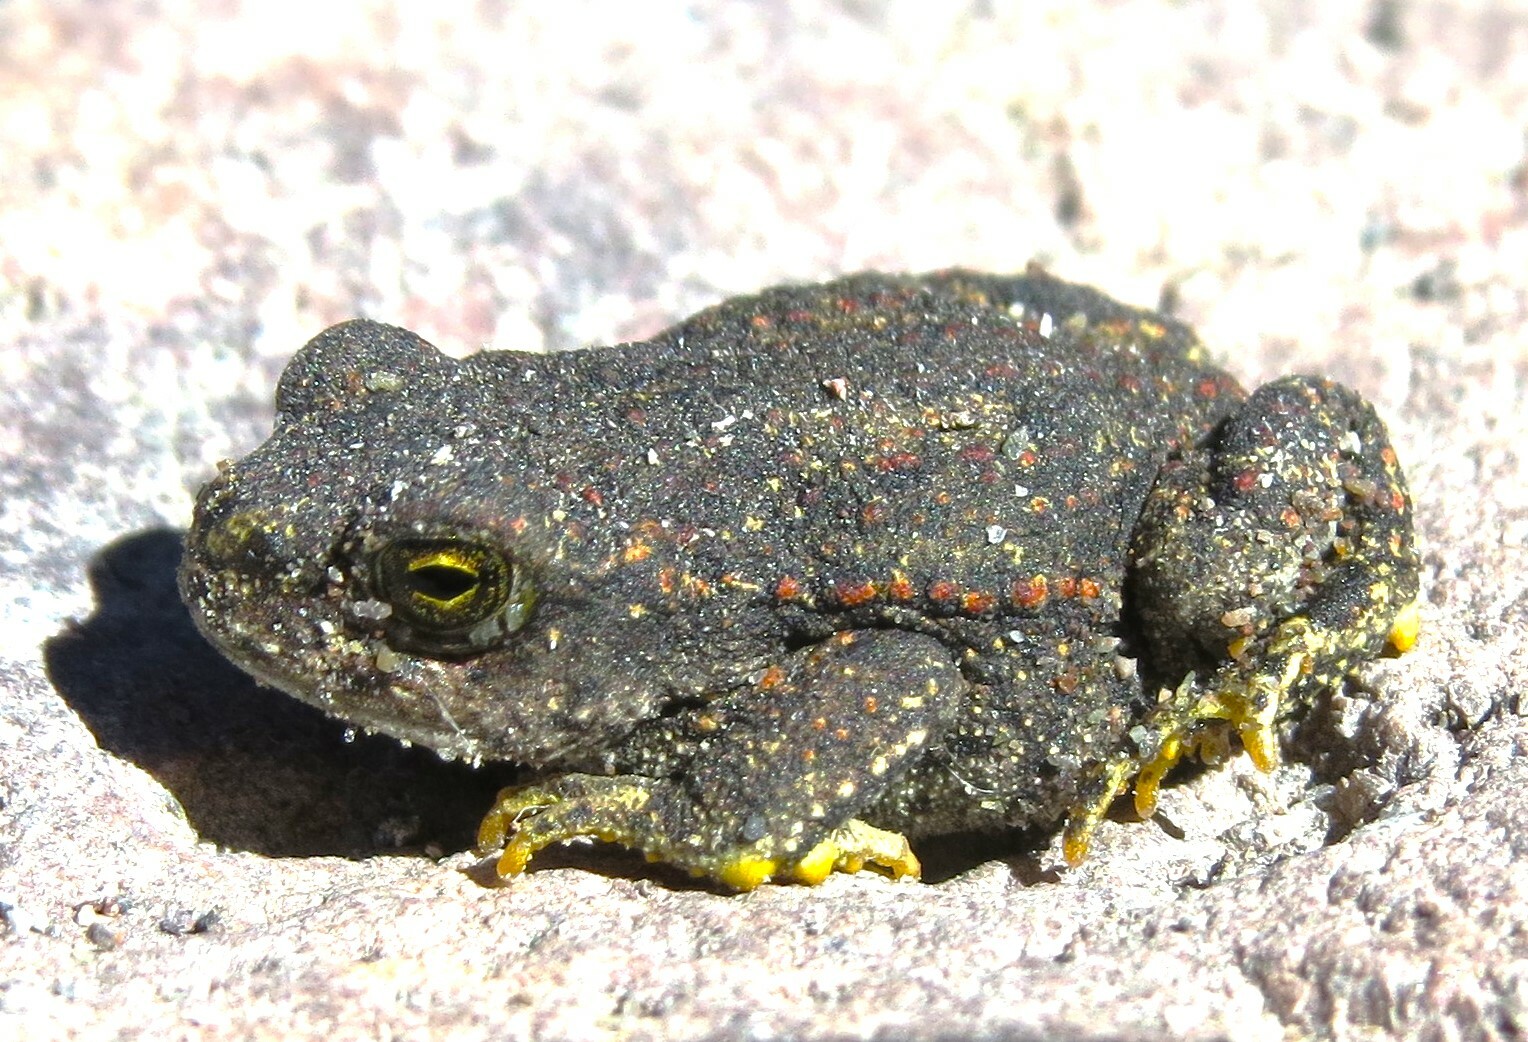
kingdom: Animalia
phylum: Chordata
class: Amphibia
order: Anura
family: Bufonidae
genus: Rhinella
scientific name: Rhinella spinulosa
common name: Warty toad
